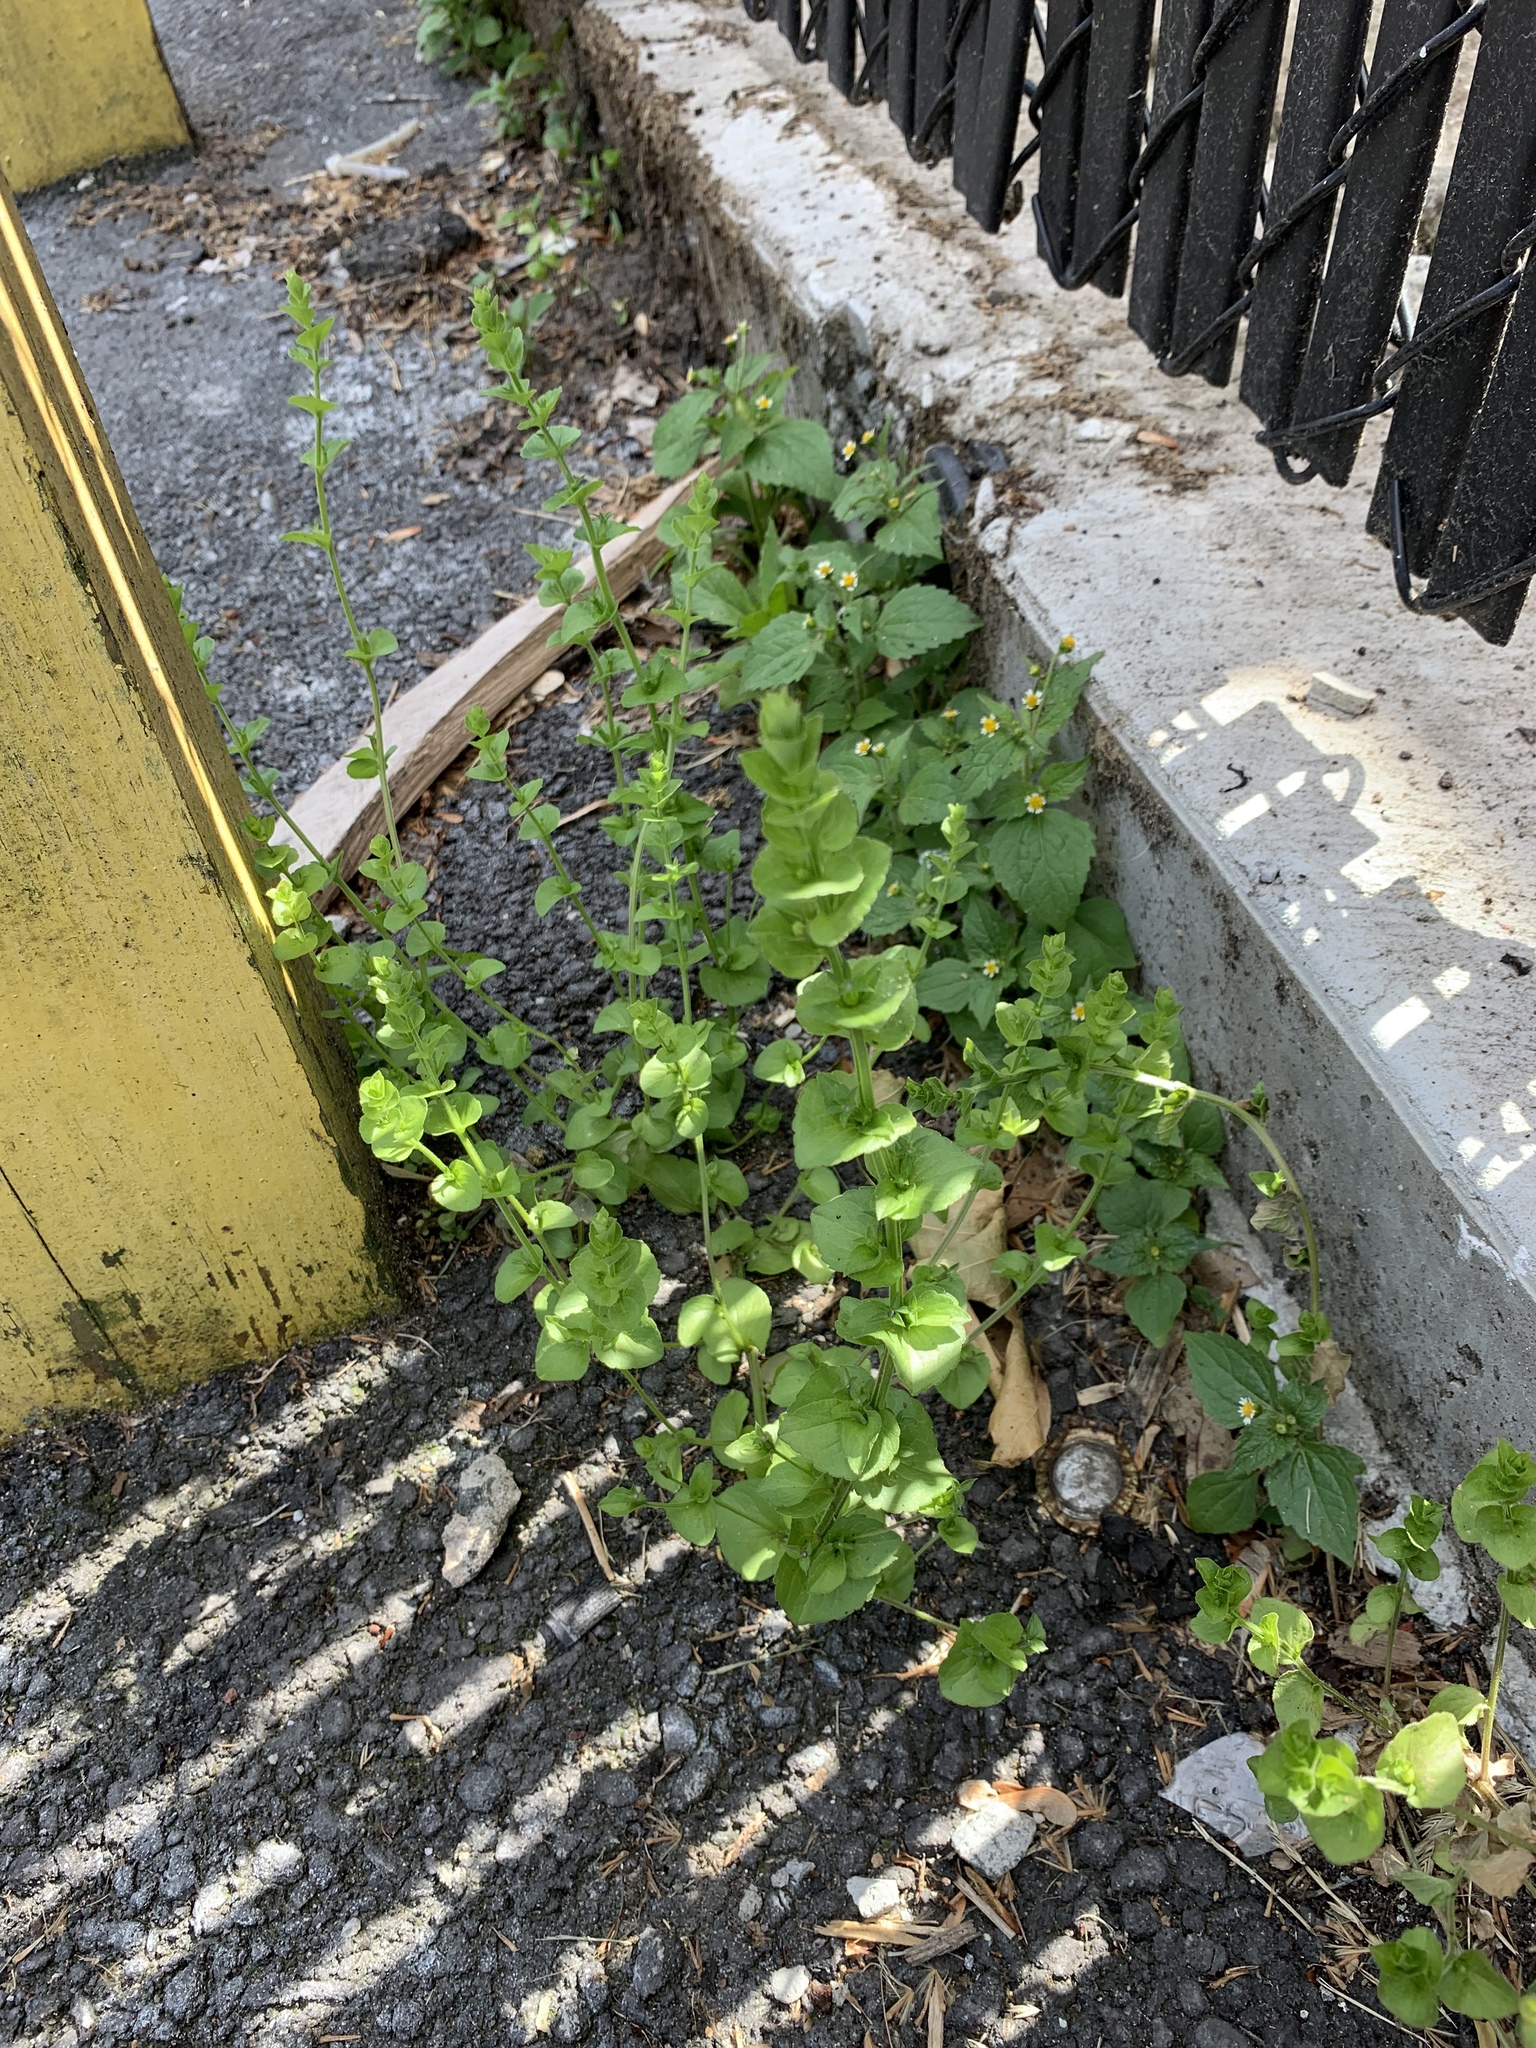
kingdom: Plantae
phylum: Tracheophyta
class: Magnoliopsida
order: Asterales
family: Campanulaceae
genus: Triodanis
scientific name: Triodanis perfoliata
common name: Clasping venus' looking-glass
